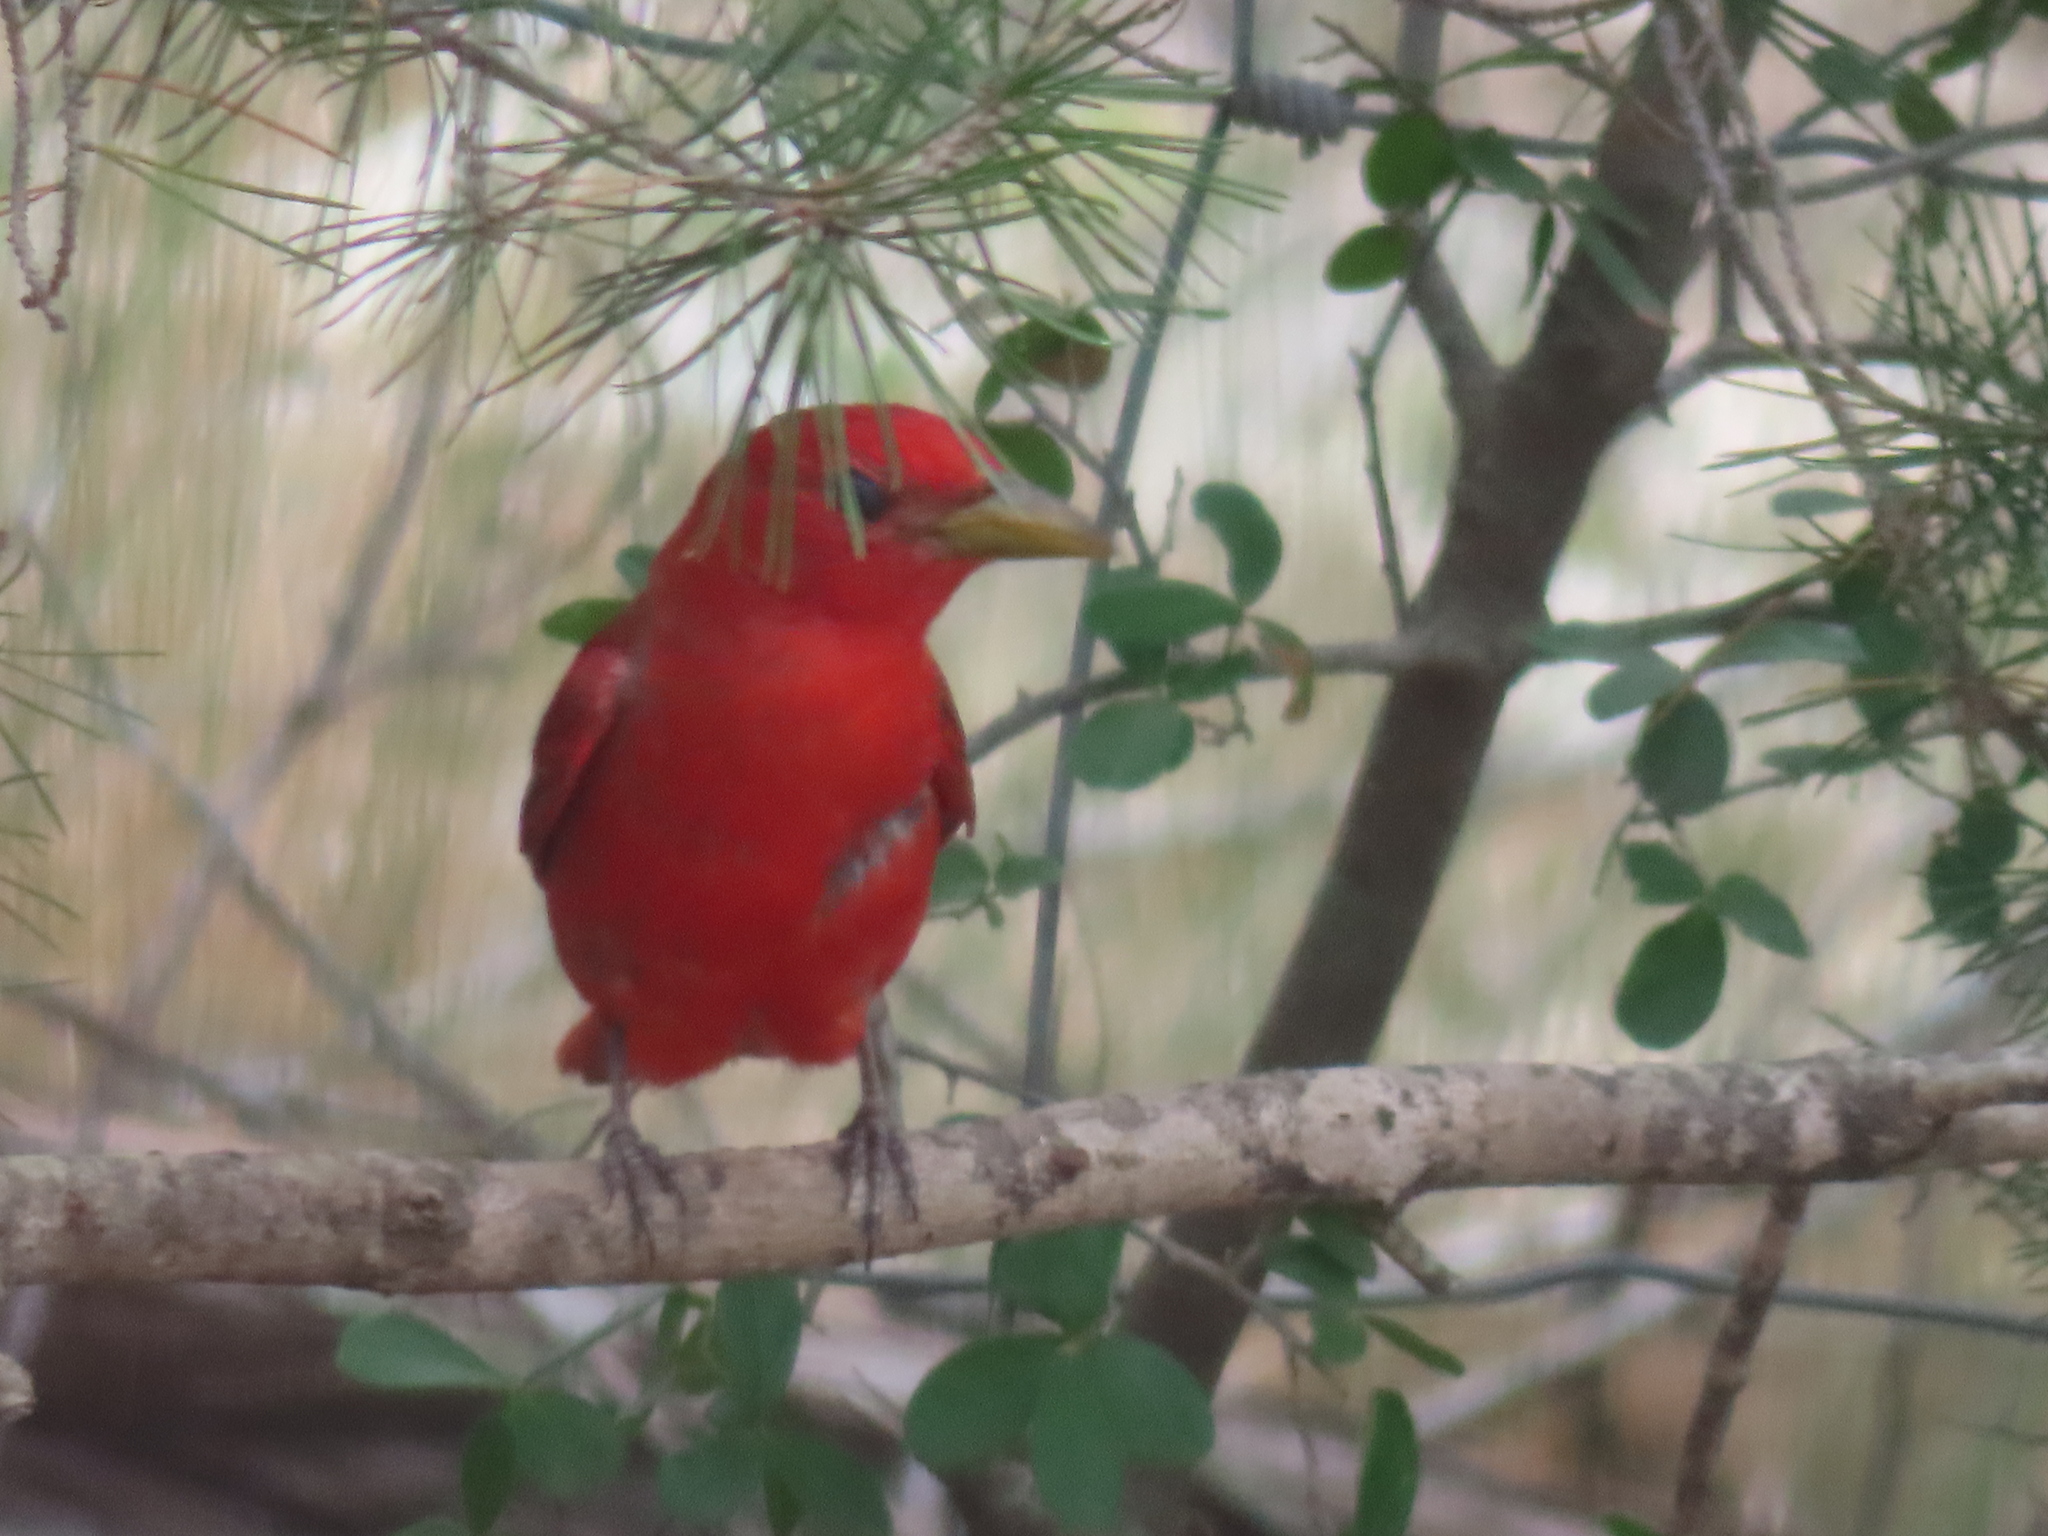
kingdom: Animalia
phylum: Chordata
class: Aves
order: Passeriformes
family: Cardinalidae
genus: Piranga
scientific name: Piranga rubra
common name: Summer tanager
